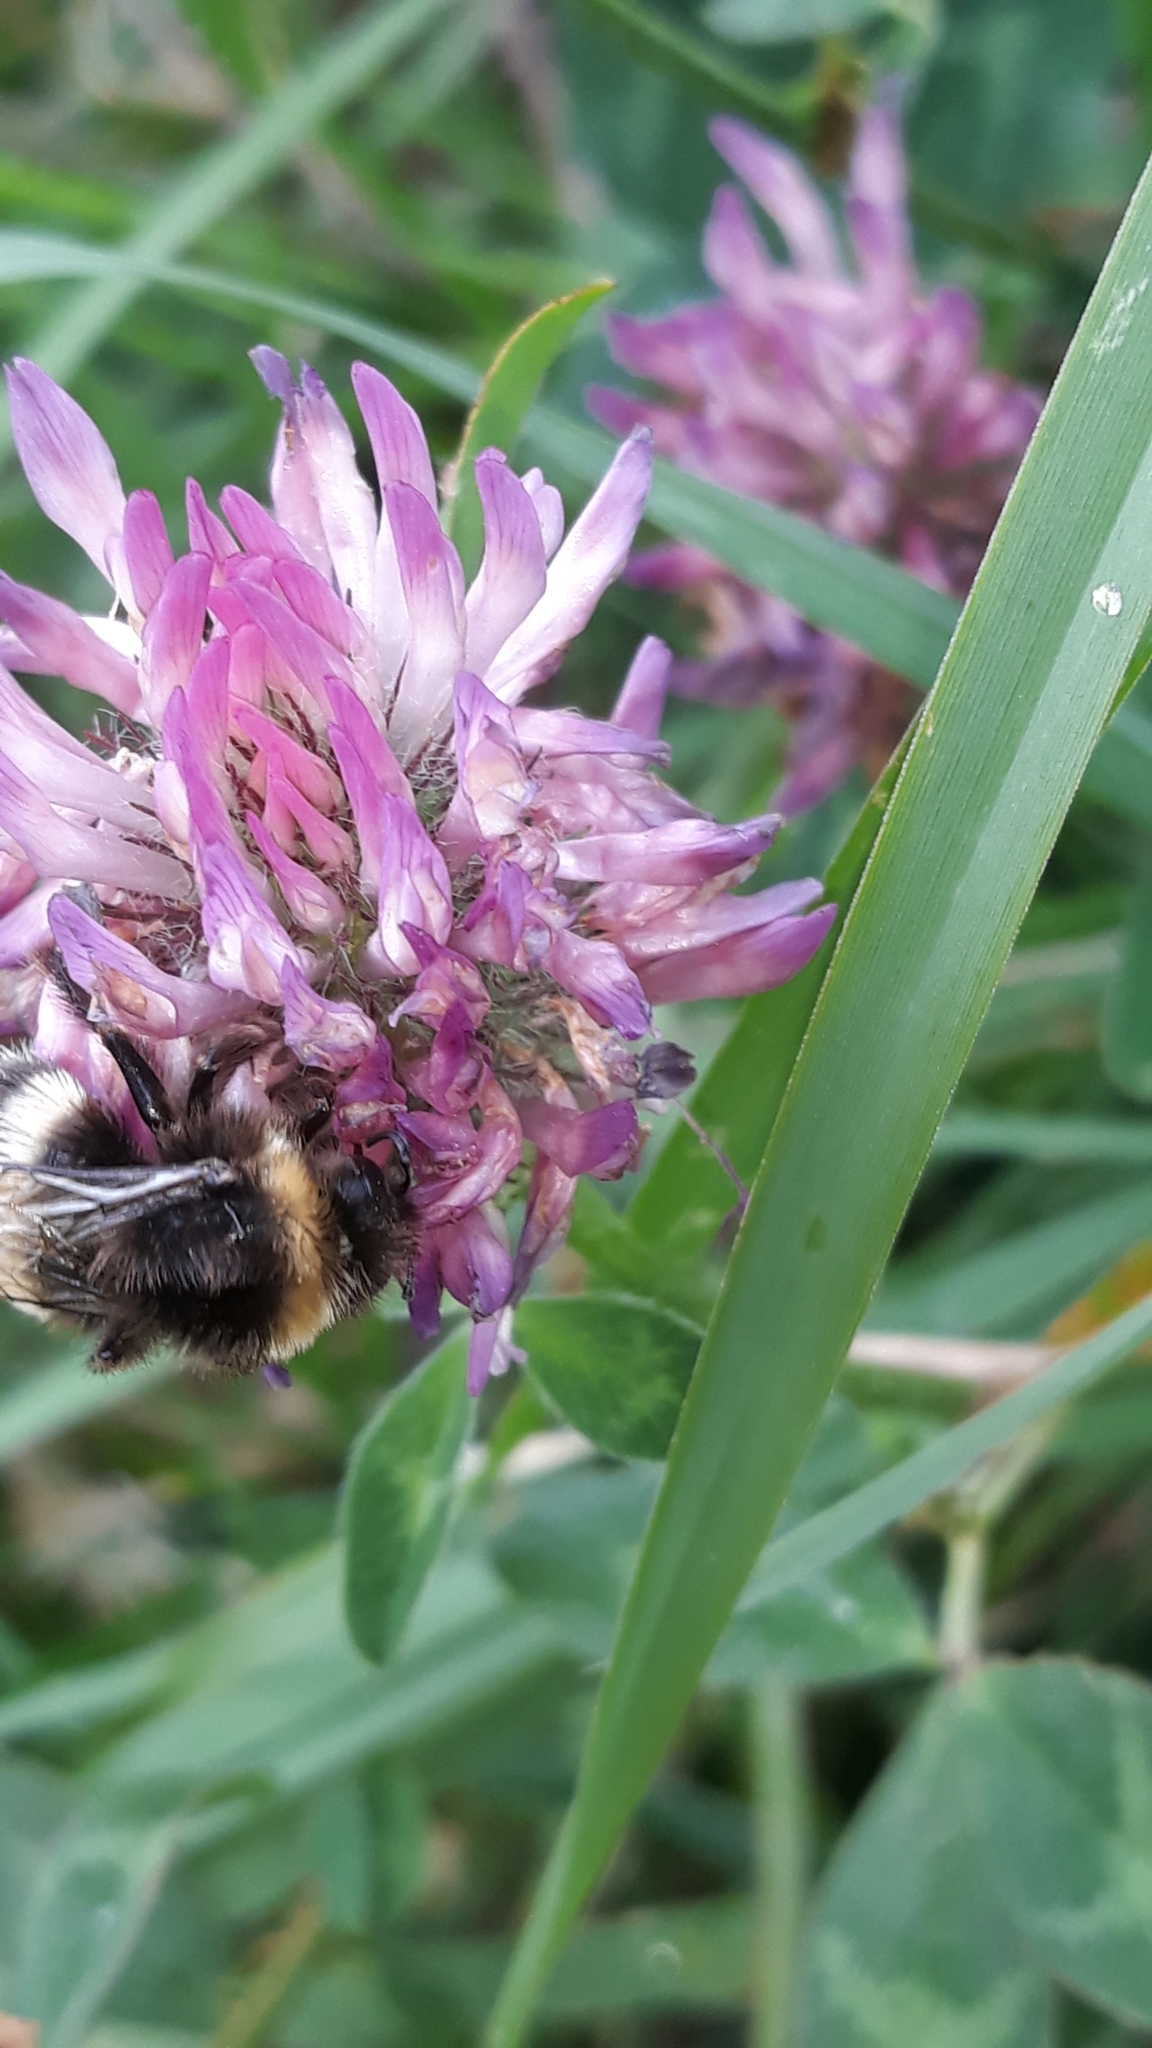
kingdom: Animalia
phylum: Arthropoda
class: Insecta
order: Hymenoptera
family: Apidae
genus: Bombus
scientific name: Bombus terrestris
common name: Buff-tailed bumblebee
